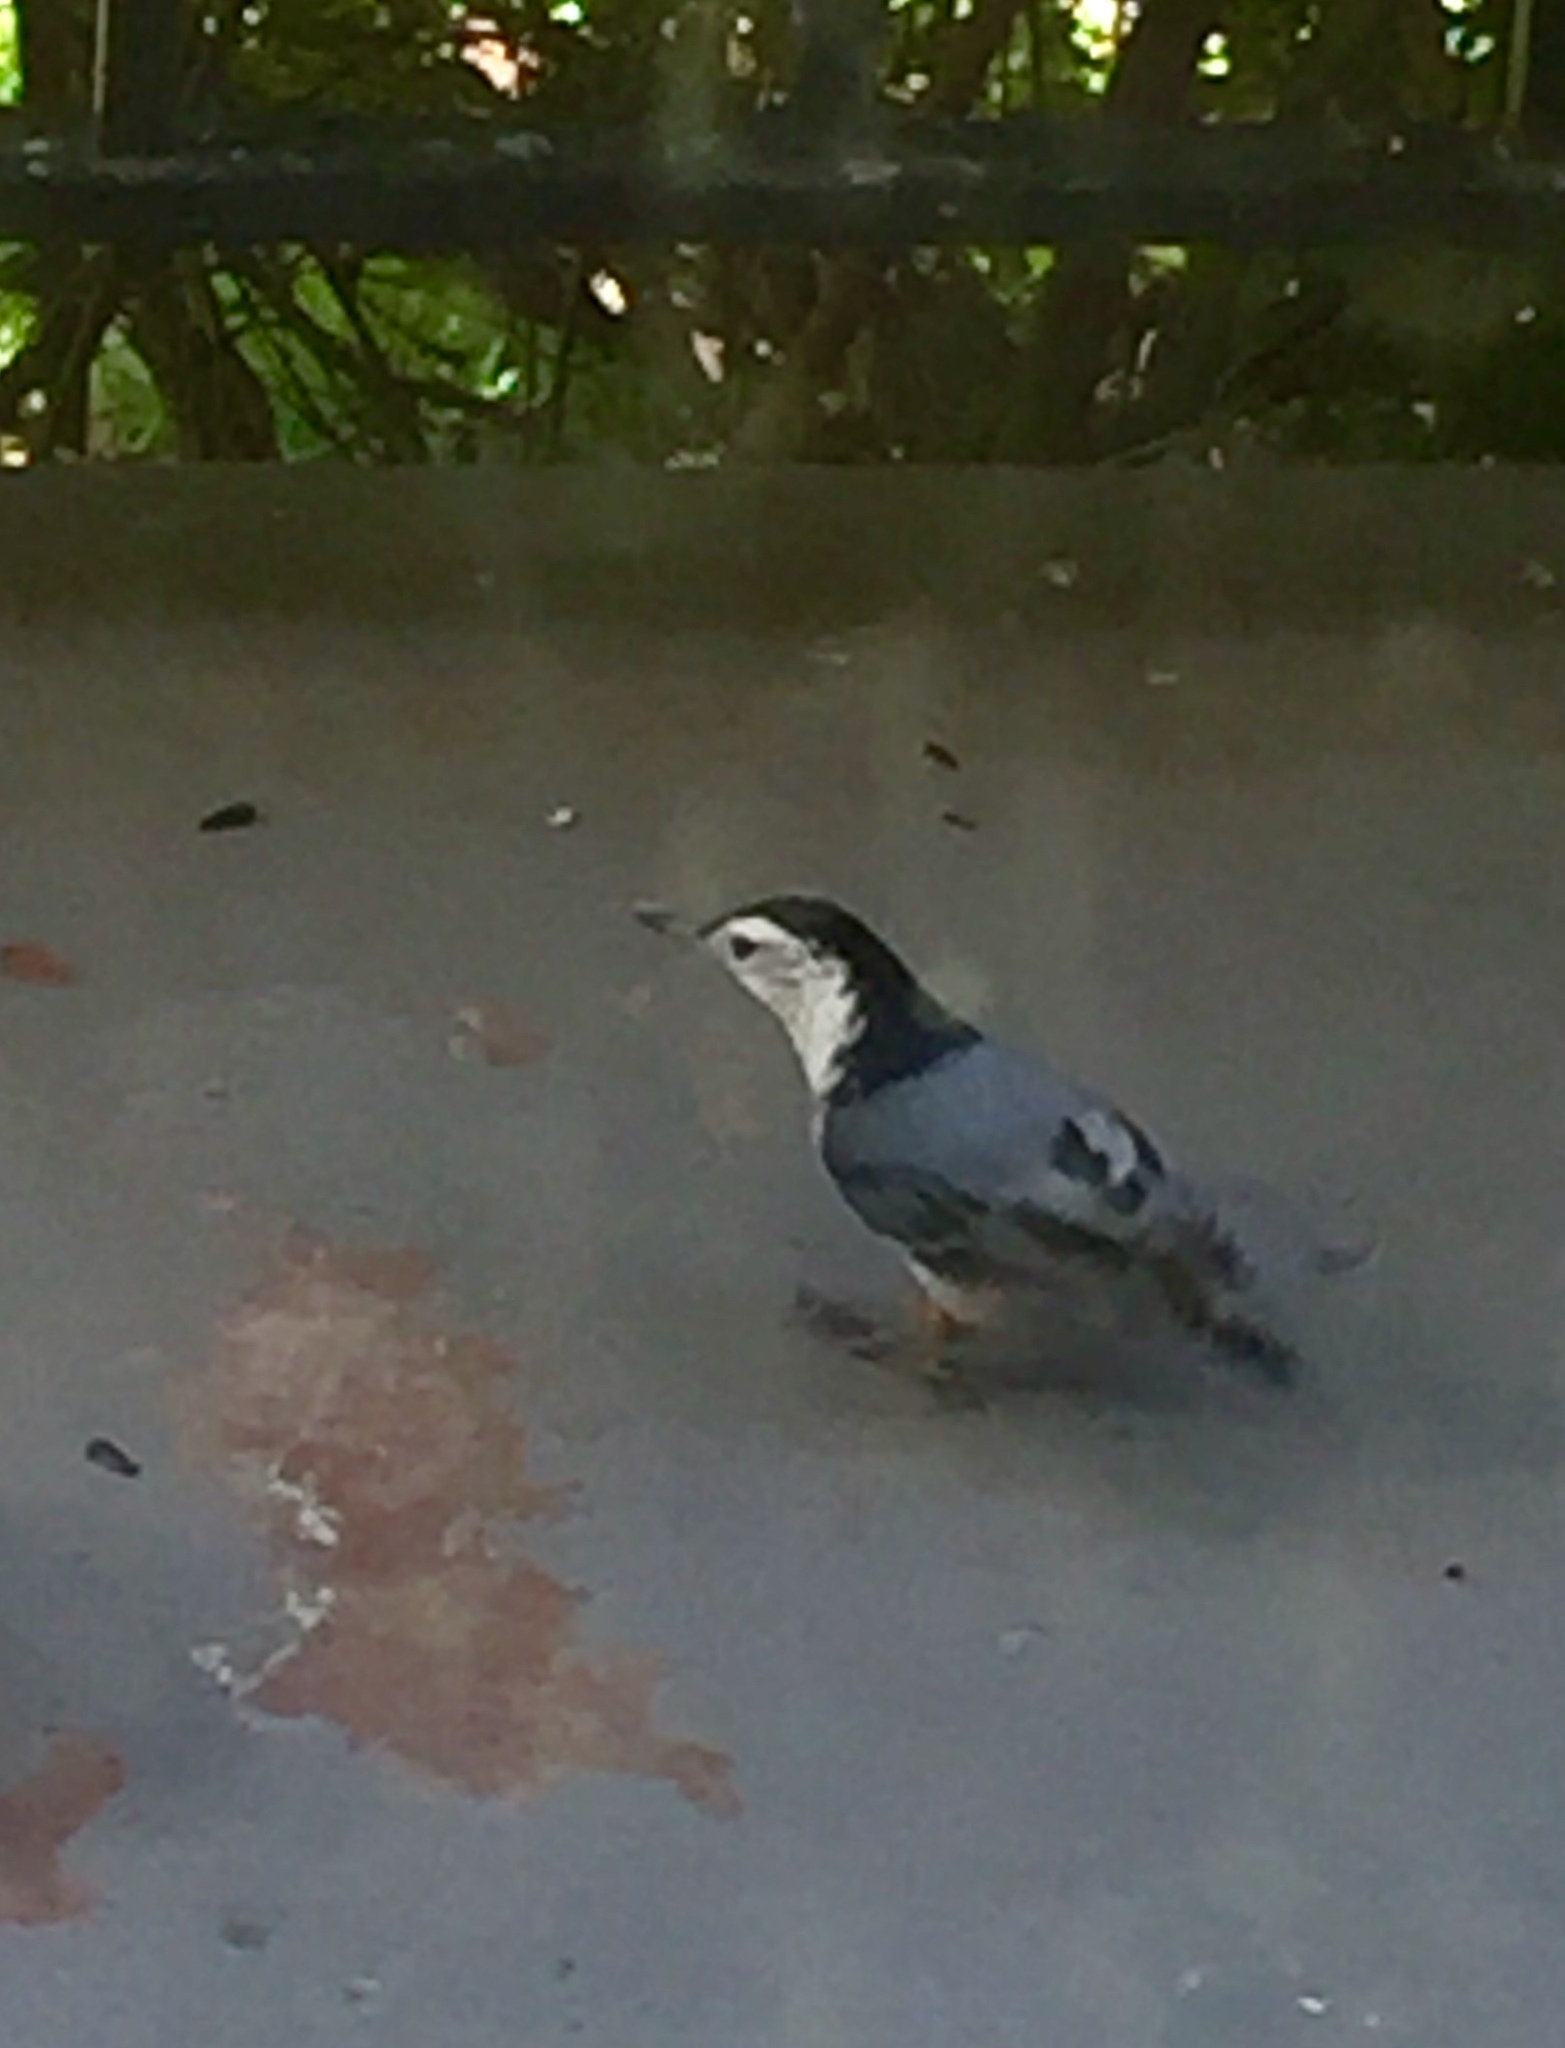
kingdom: Animalia
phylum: Chordata
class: Aves
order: Passeriformes
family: Sittidae
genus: Sitta
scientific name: Sitta carolinensis
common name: White-breasted nuthatch
